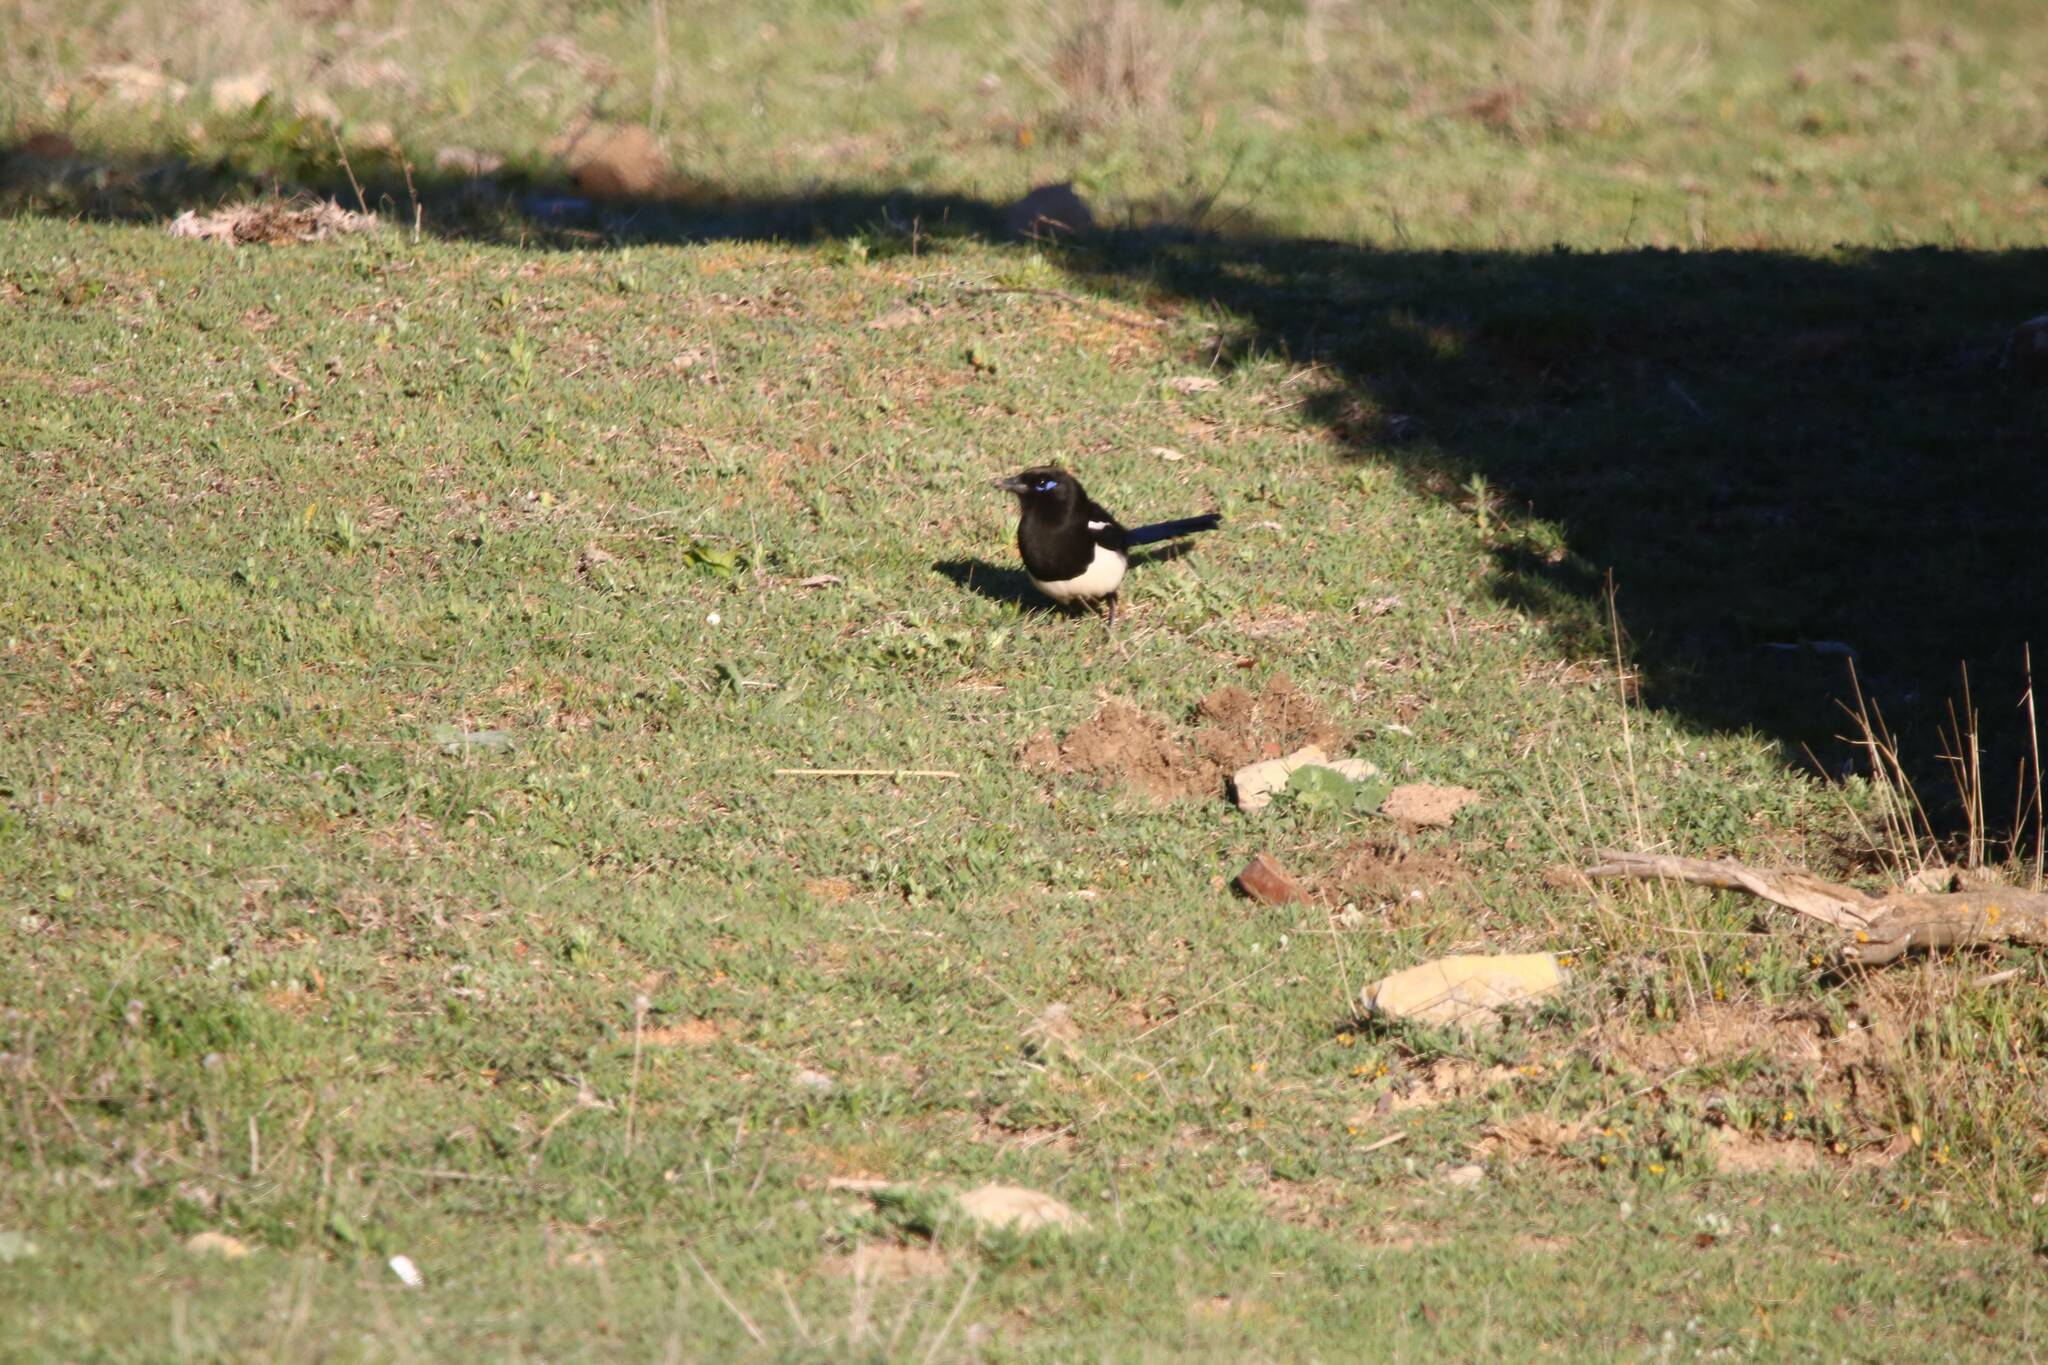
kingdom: Animalia
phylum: Chordata
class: Aves
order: Passeriformes
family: Corvidae
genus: Pica
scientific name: Pica mauritanica
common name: Maghreb magpie
